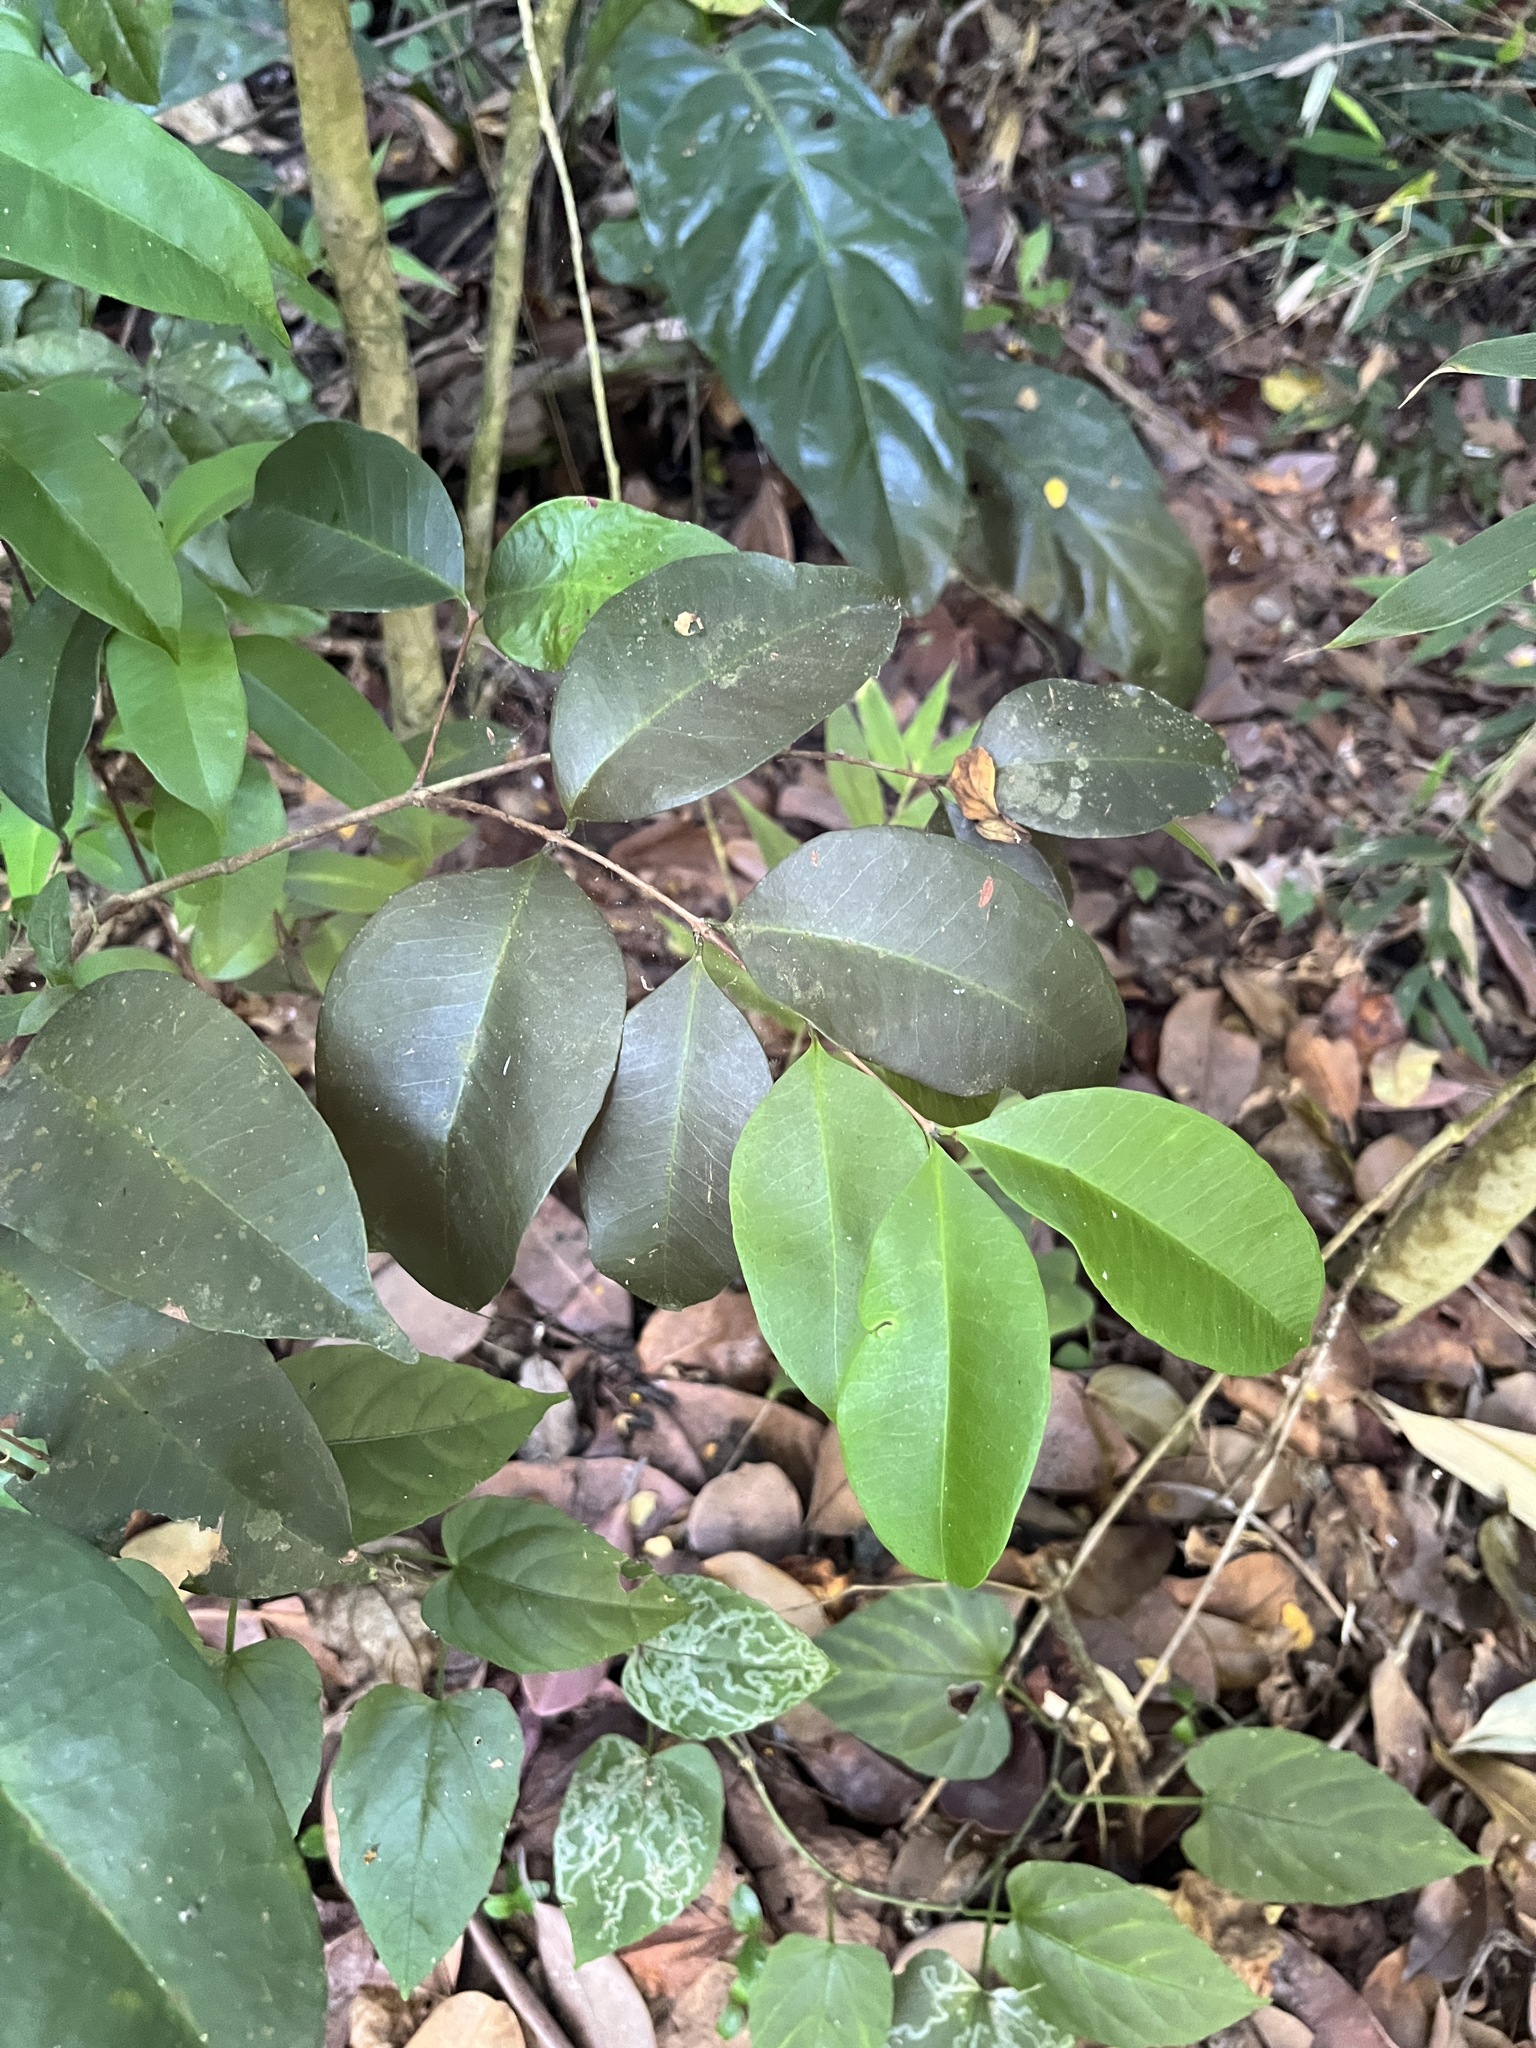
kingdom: Plantae
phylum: Tracheophyta
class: Magnoliopsida
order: Myrtales
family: Myrtaceae
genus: Eugenia
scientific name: Eugenia pseudopsidium
